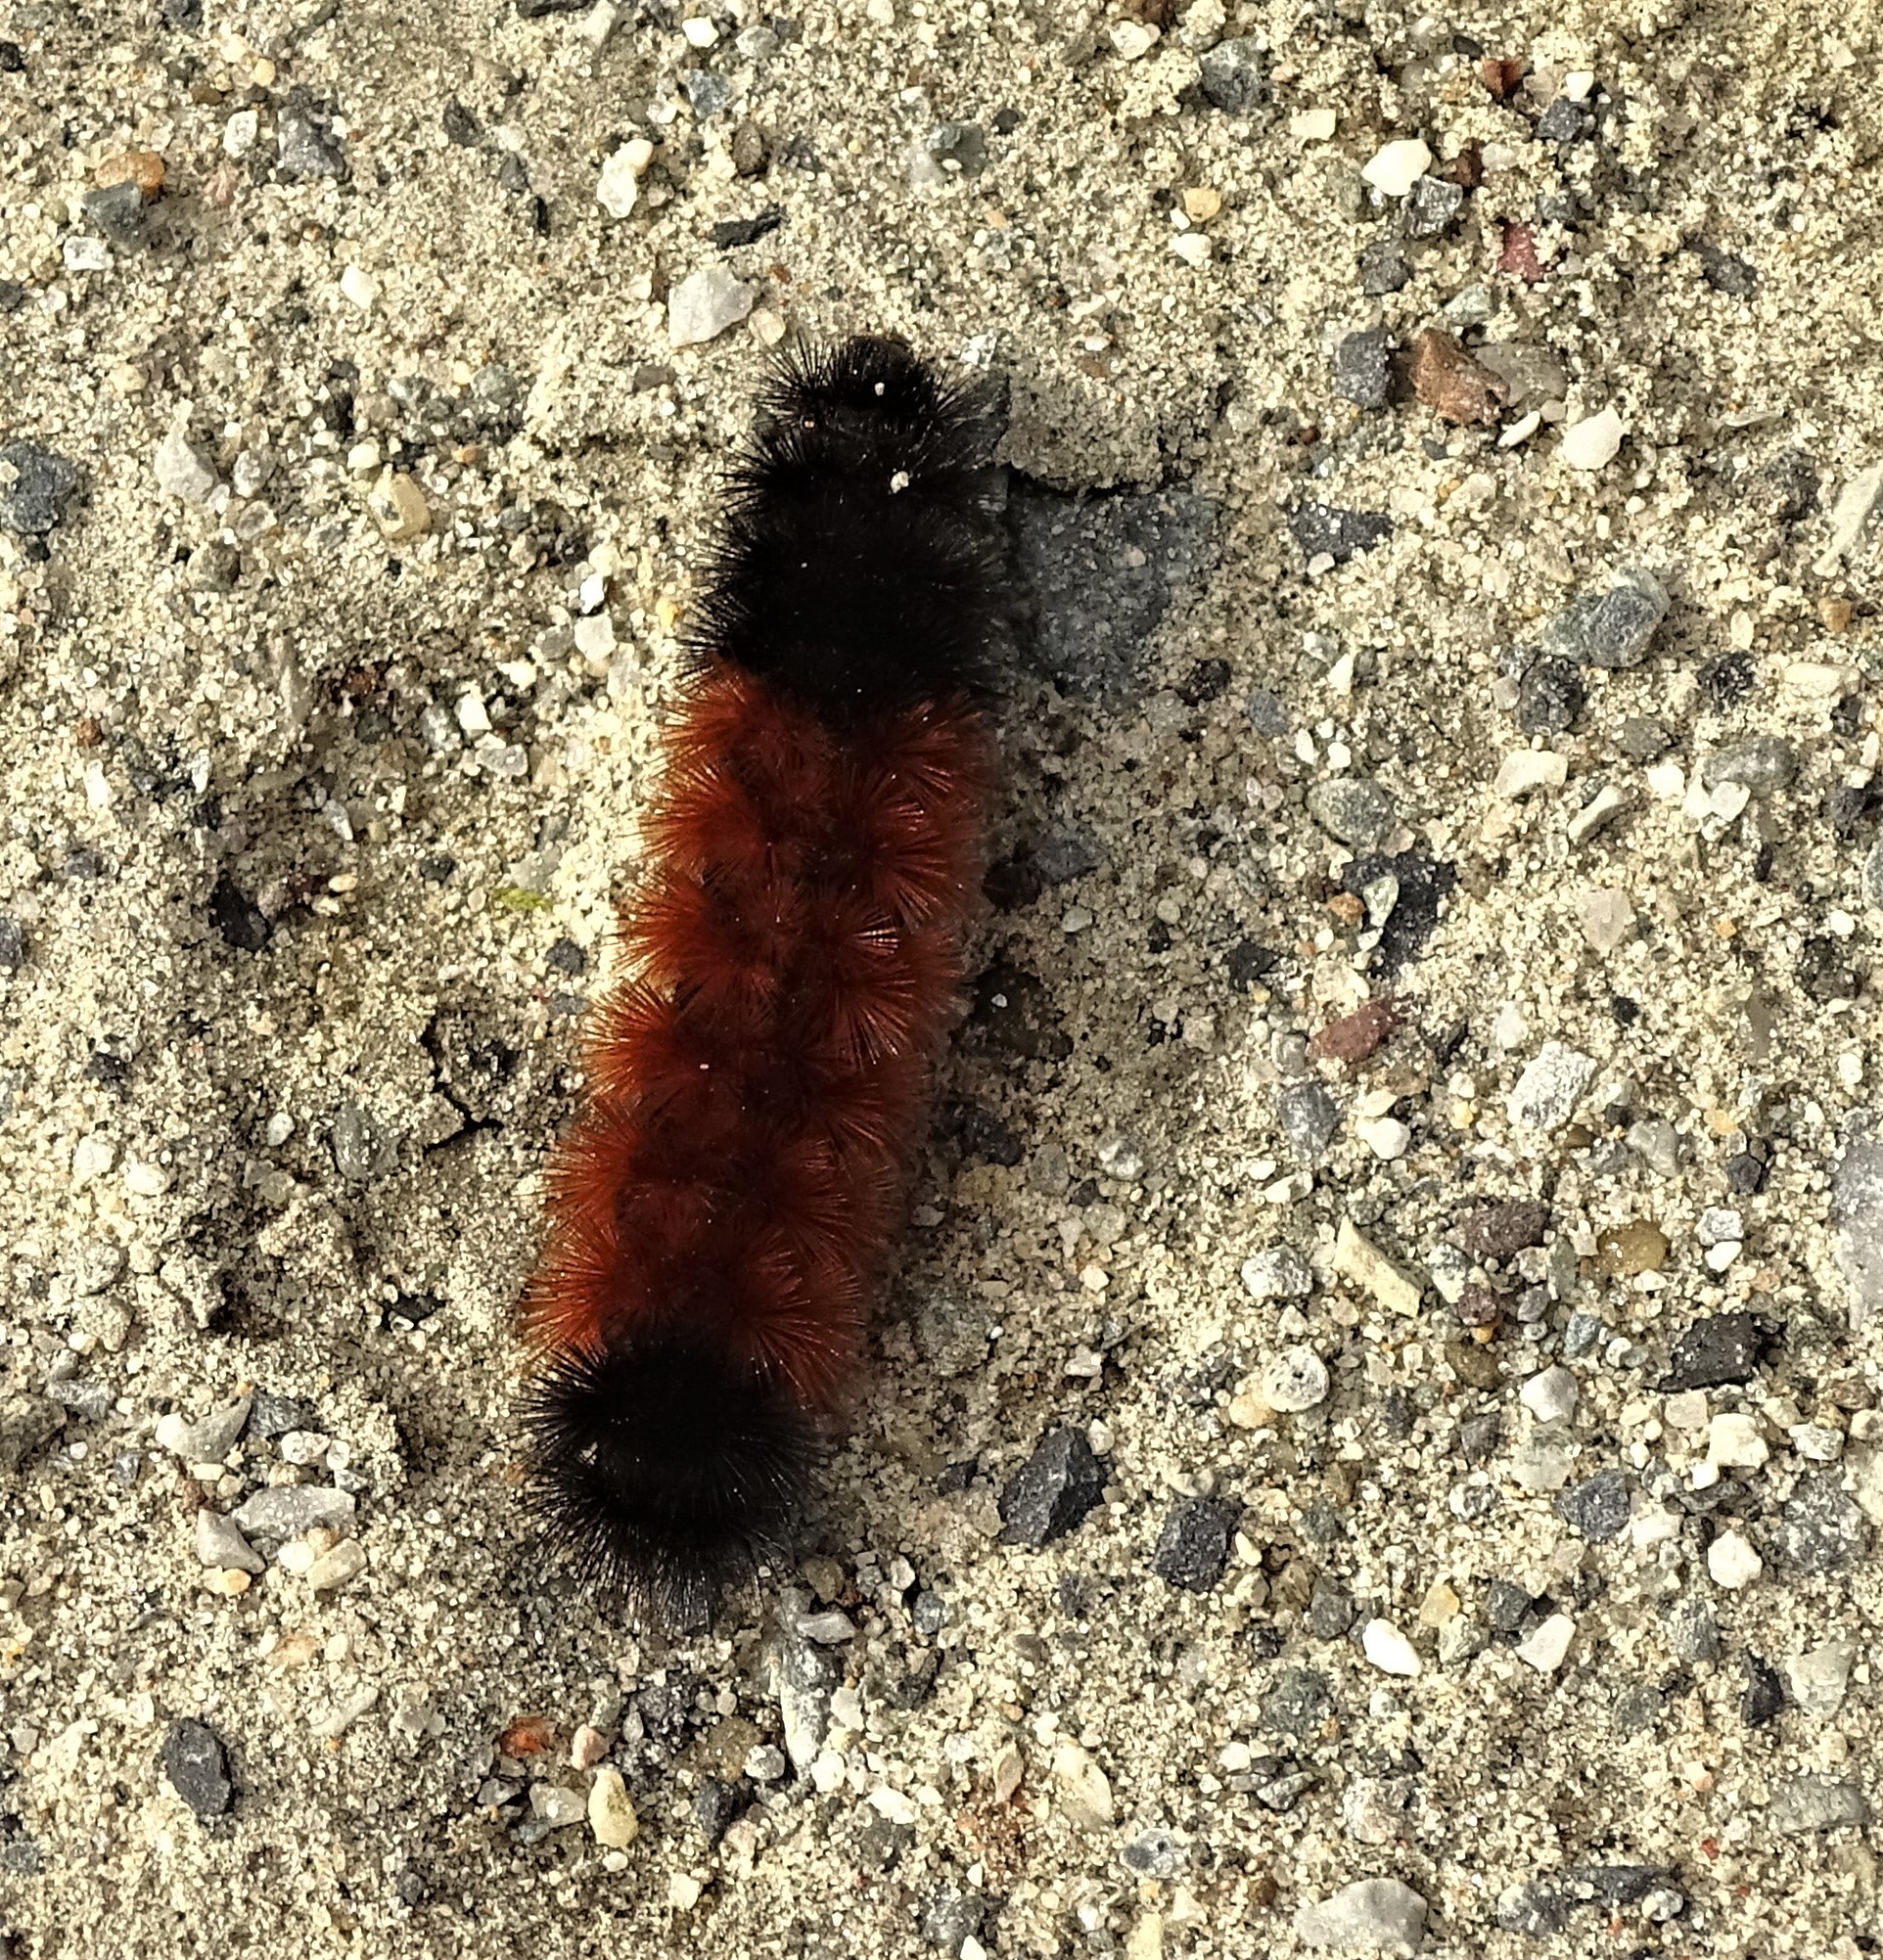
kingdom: Animalia
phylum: Arthropoda
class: Insecta
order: Lepidoptera
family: Erebidae
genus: Pyrrharctia
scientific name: Pyrrharctia isabella
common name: Isabella tiger moth
